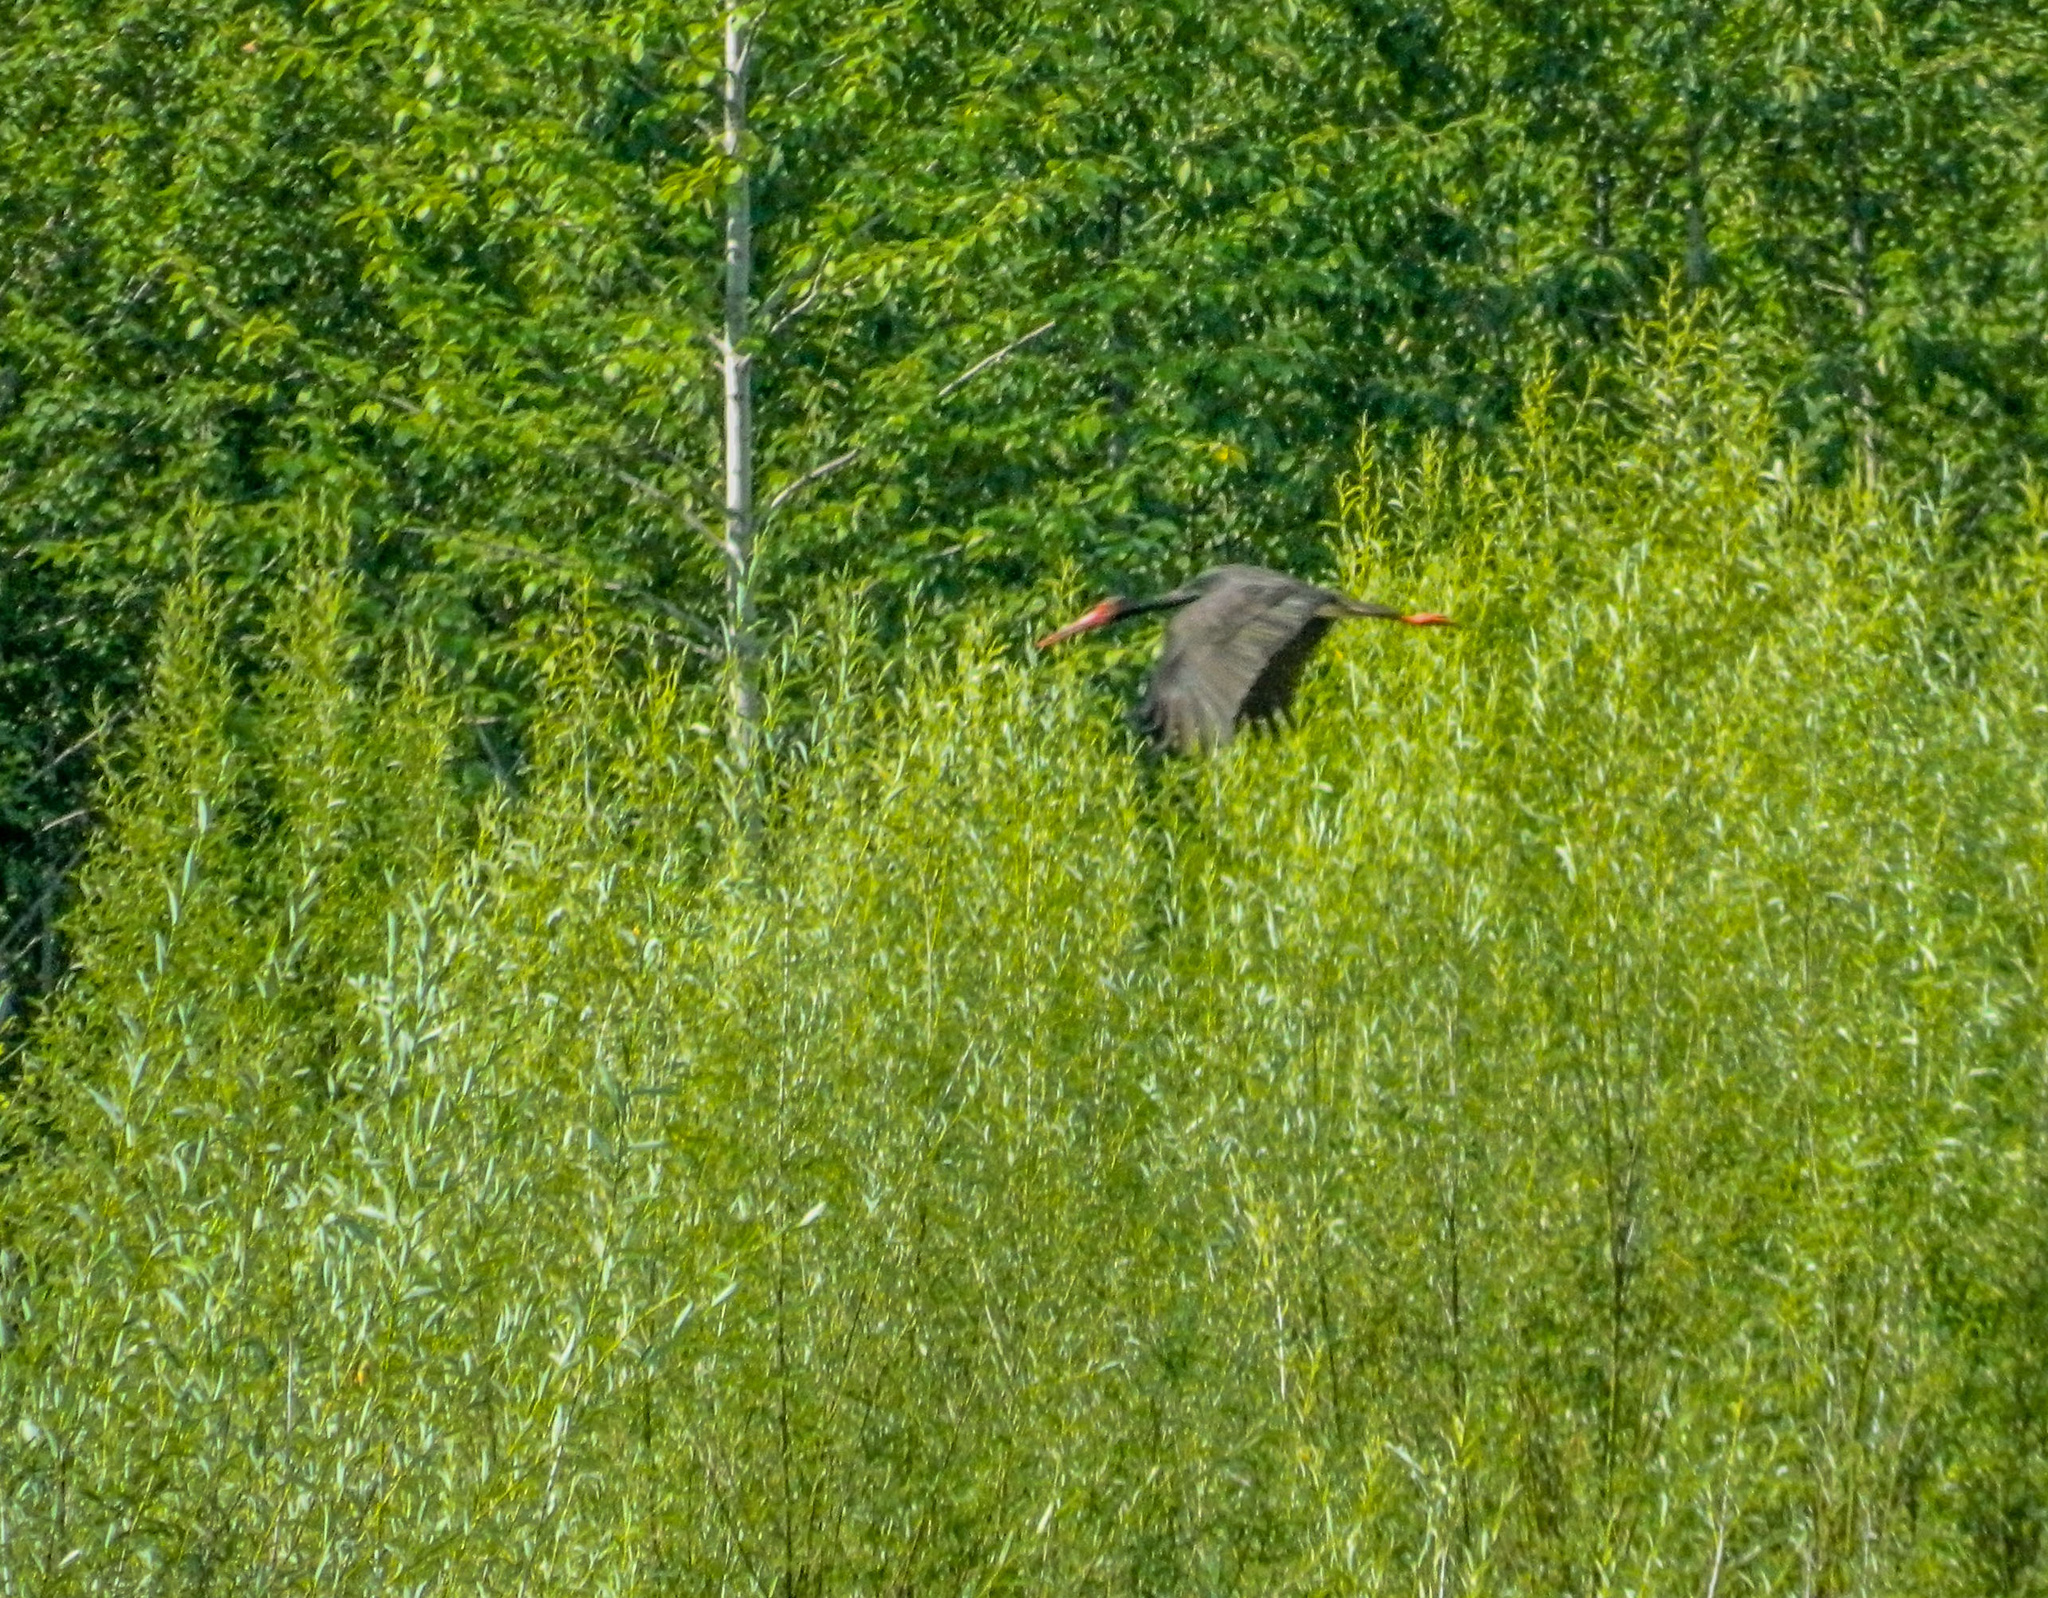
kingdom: Animalia
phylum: Chordata
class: Aves
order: Ciconiiformes
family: Ciconiidae
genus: Ciconia
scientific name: Ciconia nigra
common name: Black stork
